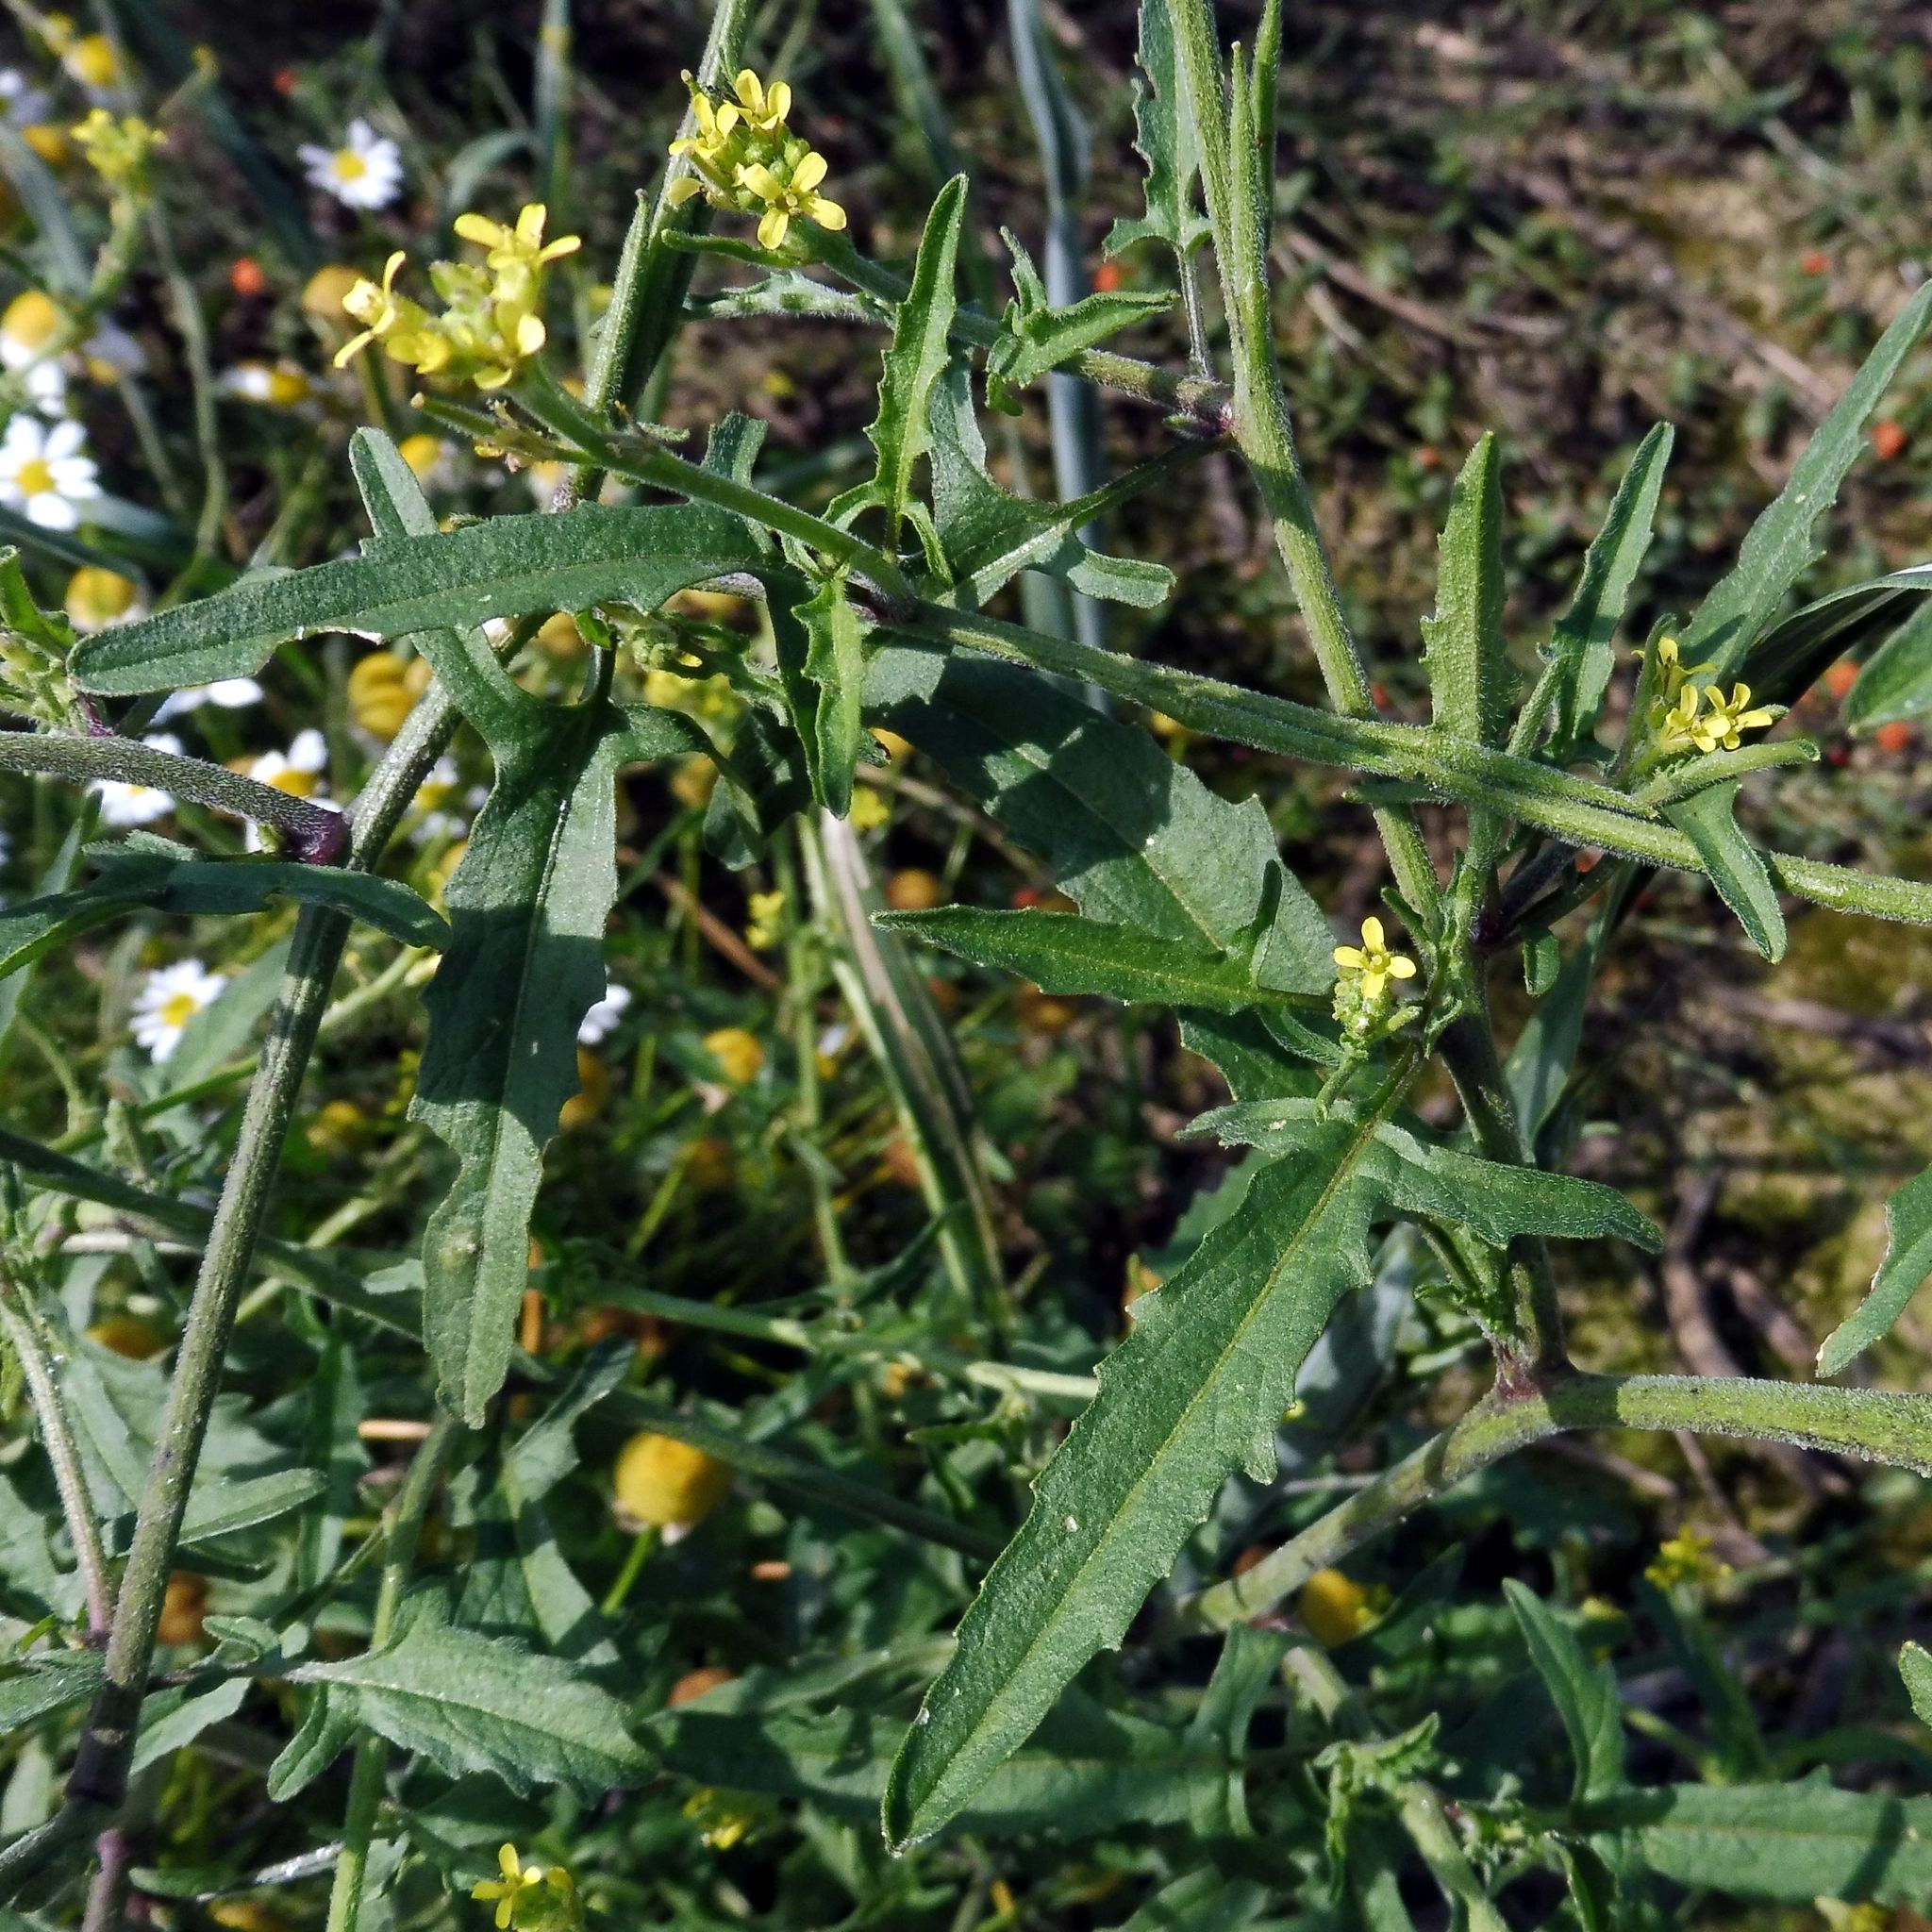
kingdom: Plantae
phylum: Tracheophyta
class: Magnoliopsida
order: Brassicales
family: Brassicaceae
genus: Sisymbrium
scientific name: Sisymbrium officinale
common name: Hedge mustard
